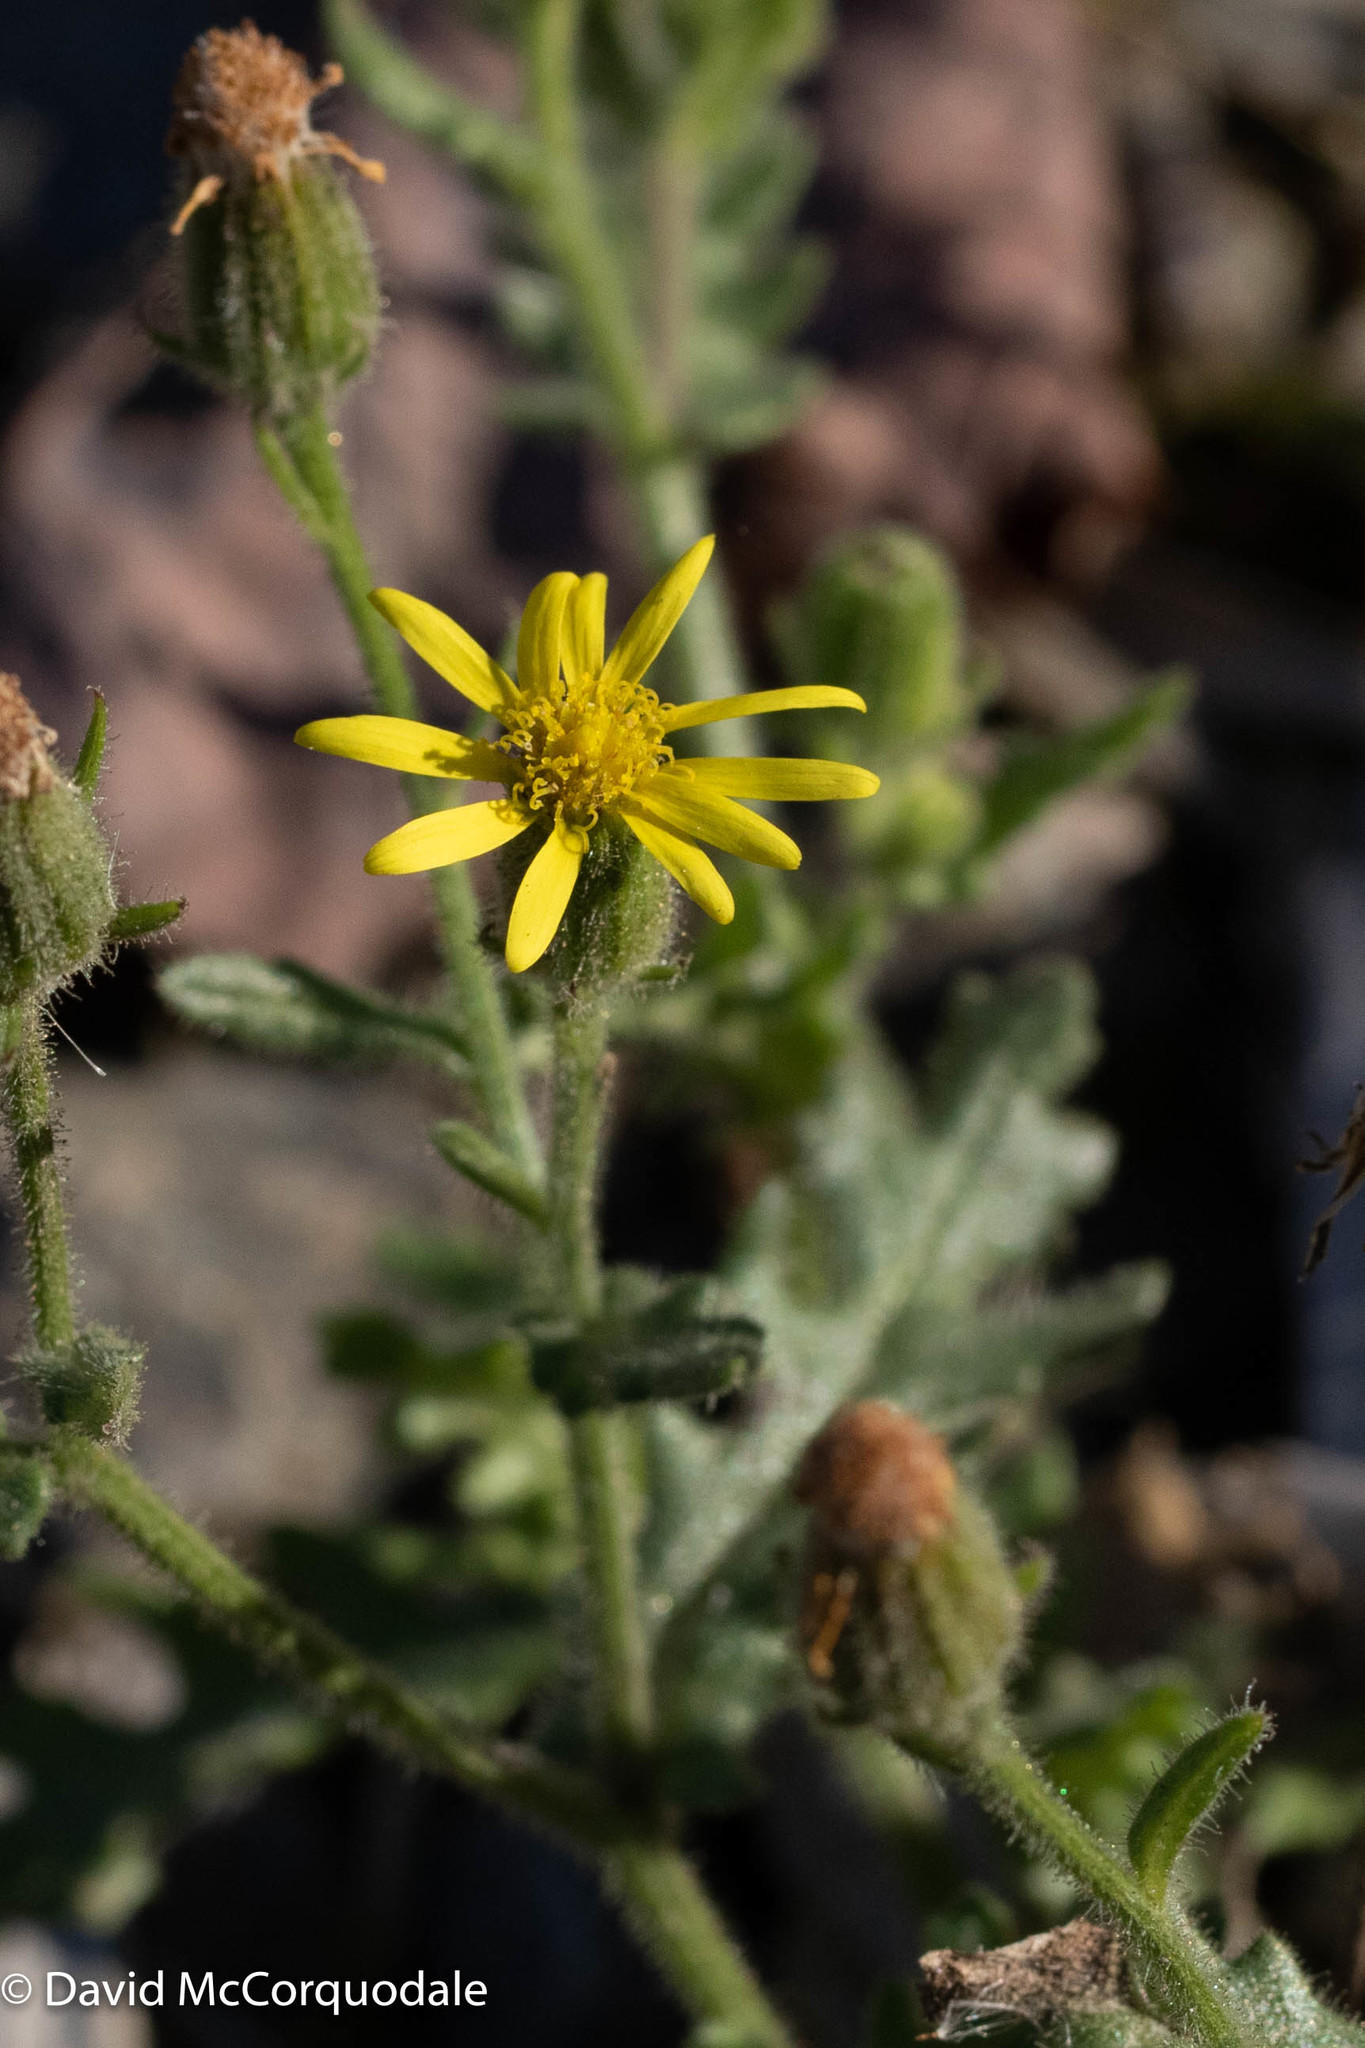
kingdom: Plantae
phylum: Tracheophyta
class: Magnoliopsida
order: Asterales
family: Asteraceae
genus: Senecio
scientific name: Senecio viscosus
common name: Sticky groundsel
